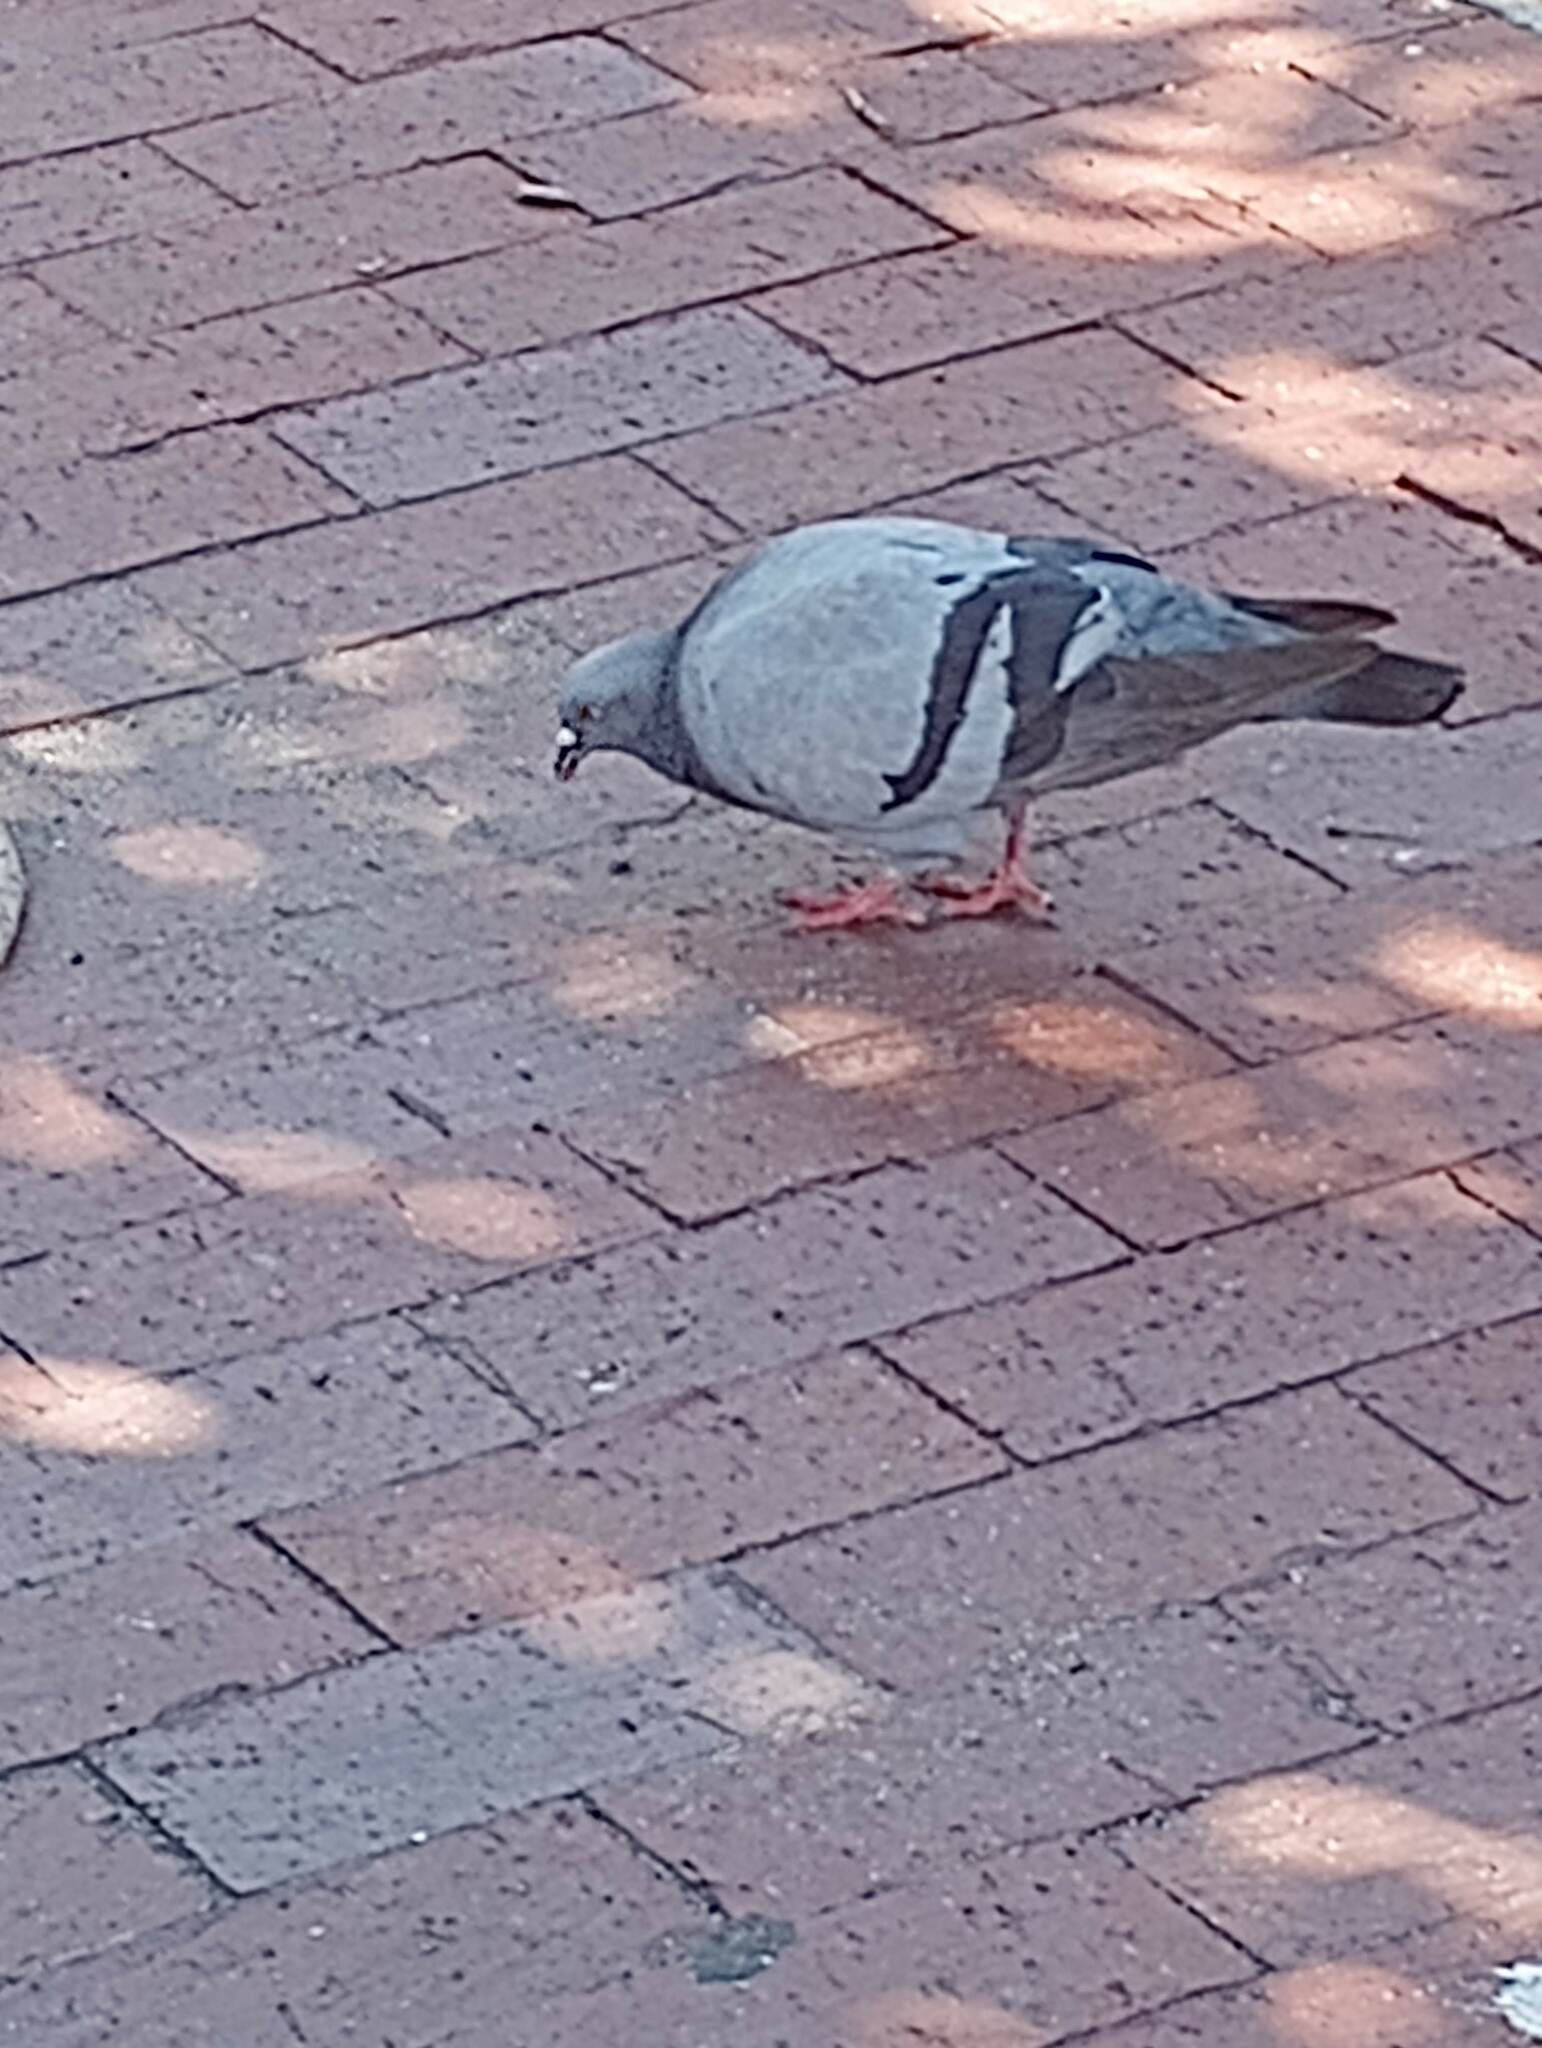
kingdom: Animalia
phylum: Chordata
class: Aves
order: Columbiformes
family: Columbidae
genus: Columba
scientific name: Columba livia
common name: Rock pigeon
